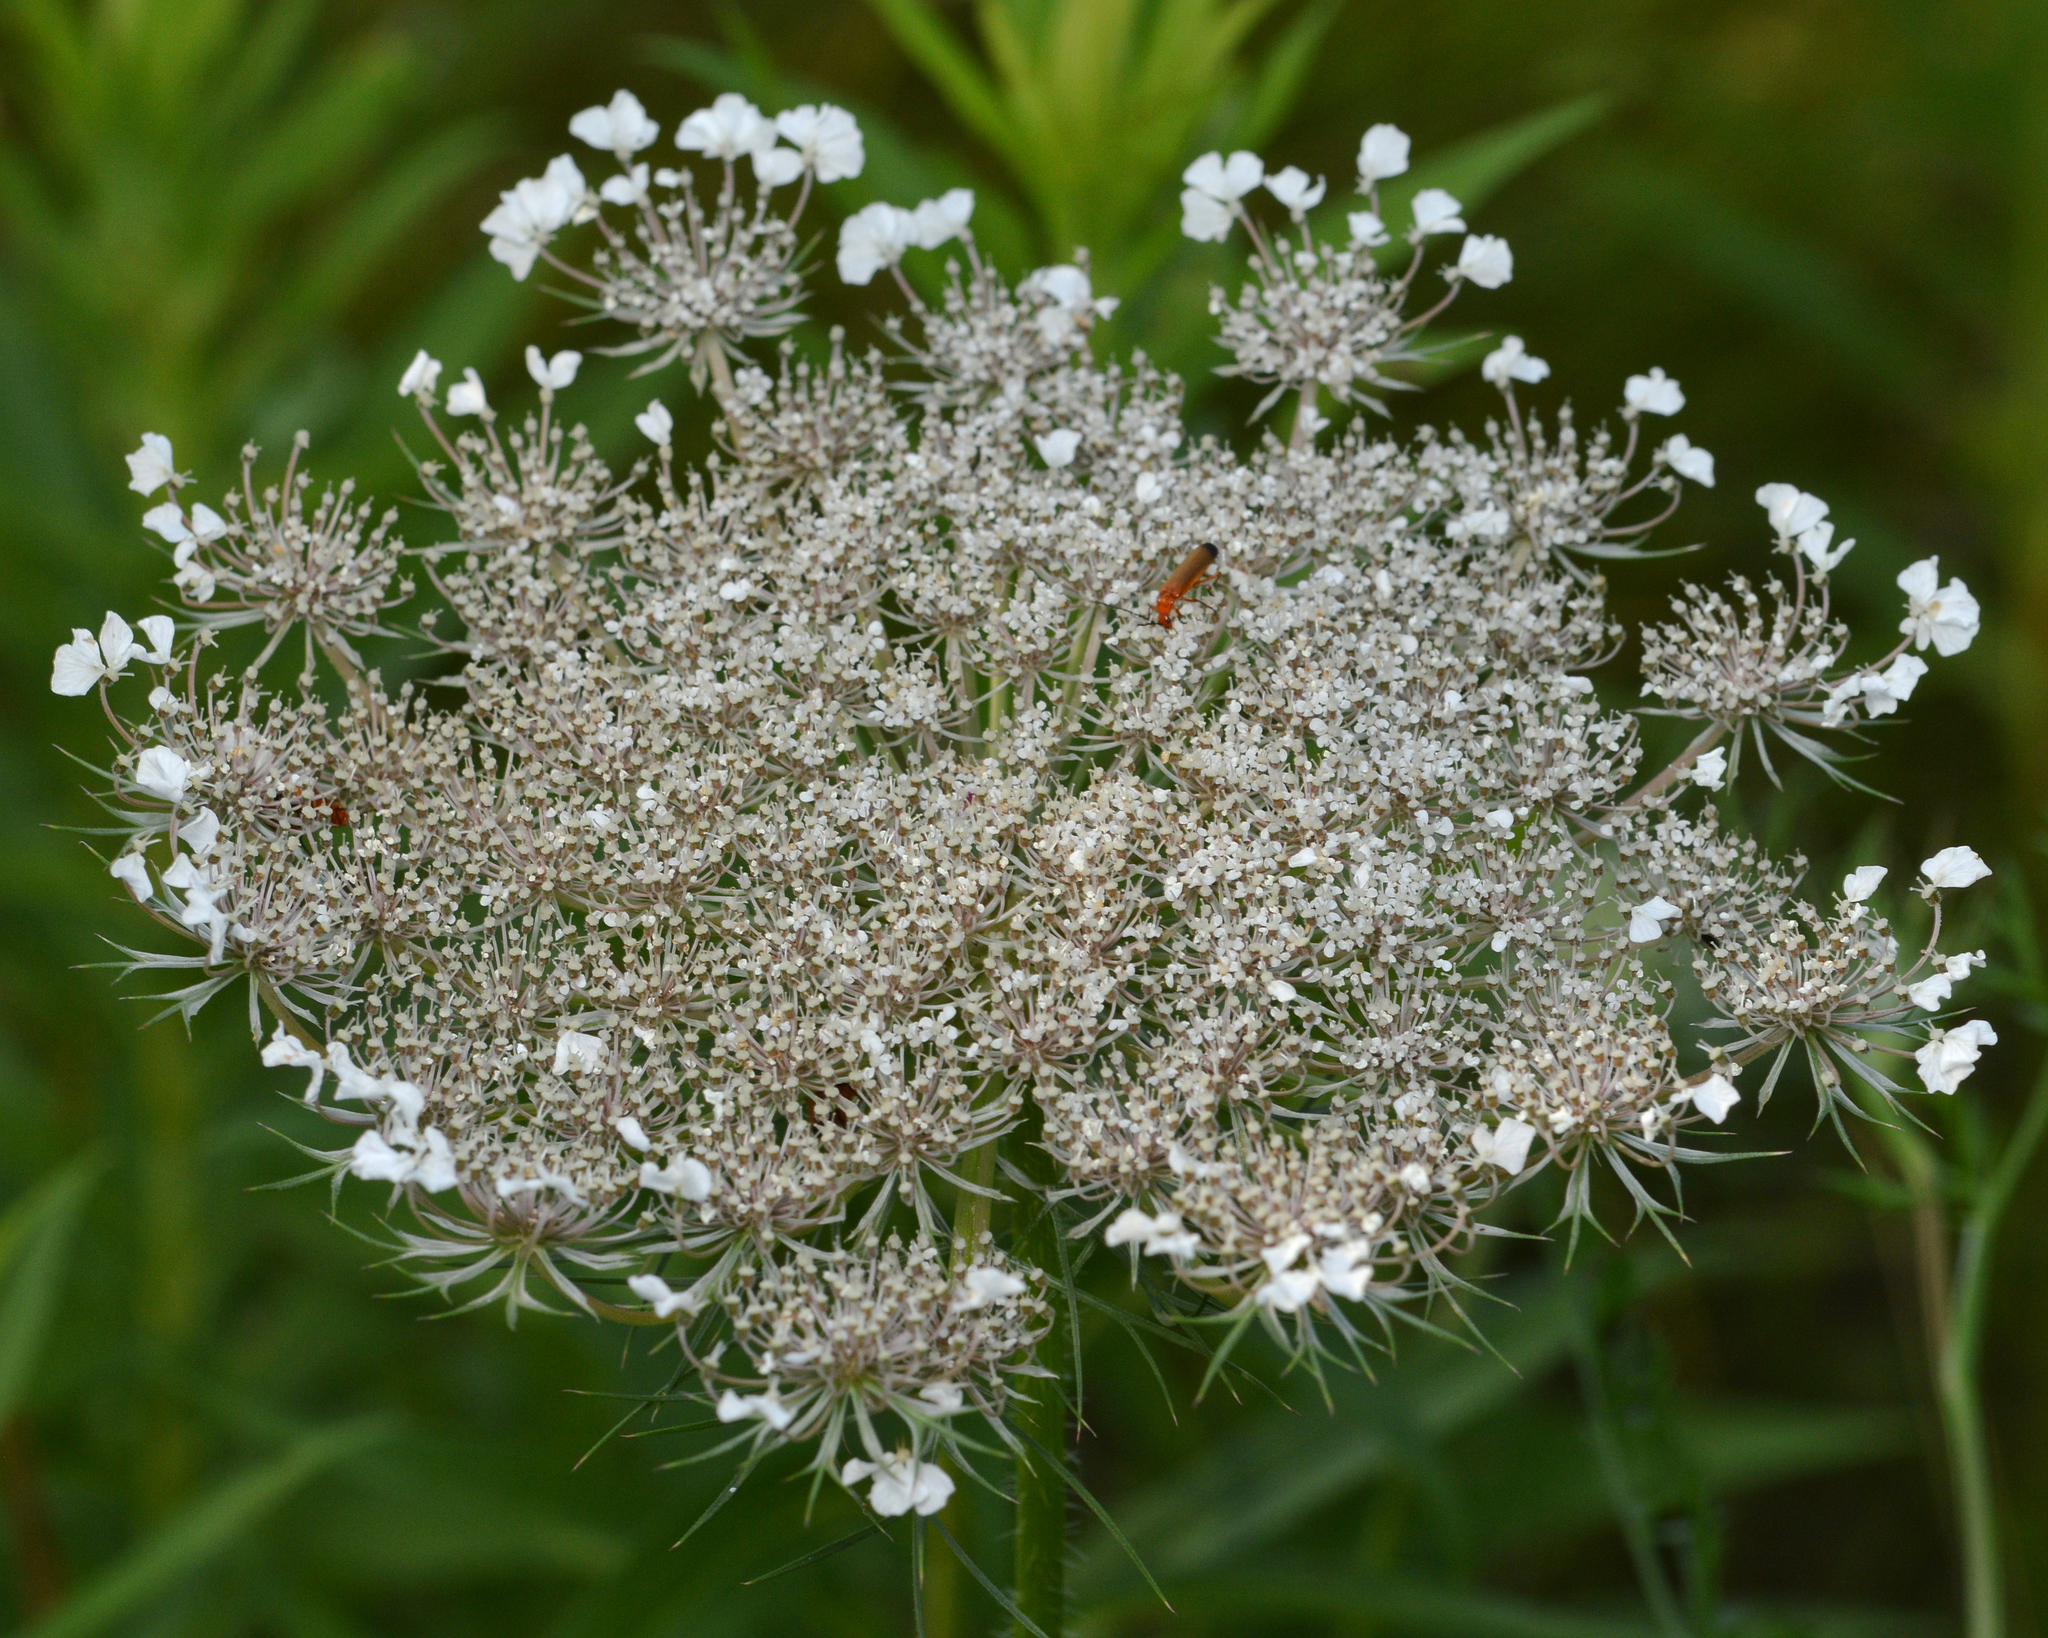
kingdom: Plantae
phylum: Tracheophyta
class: Magnoliopsida
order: Apiales
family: Apiaceae
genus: Daucus
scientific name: Daucus carota
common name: Wild carrot
